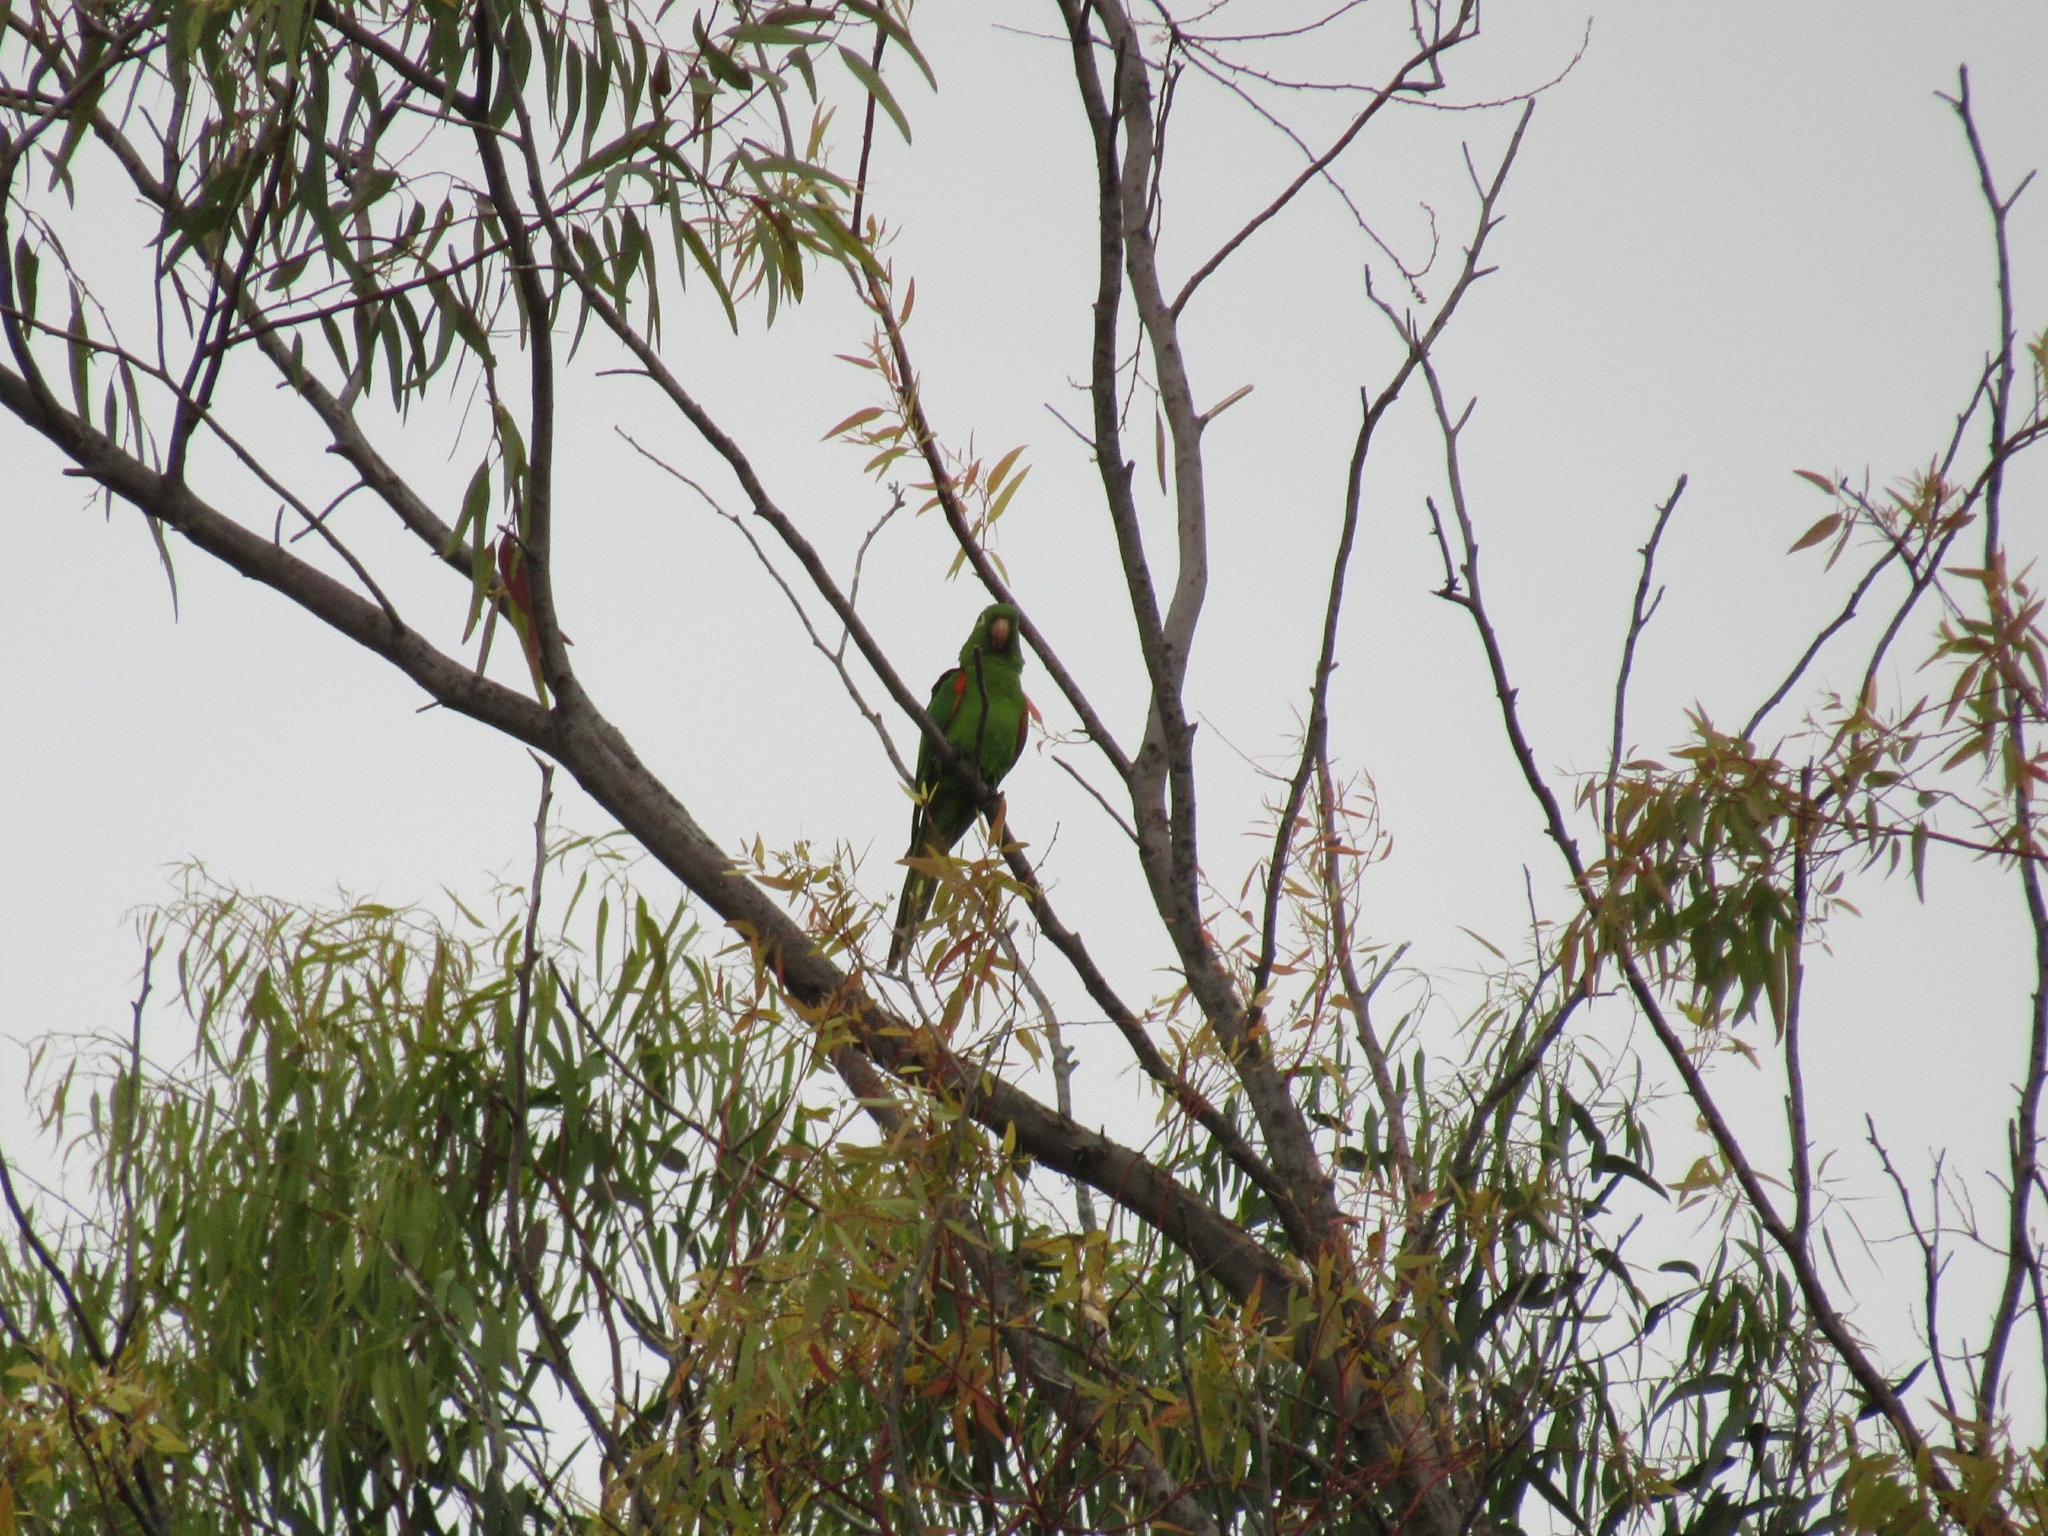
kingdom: Animalia
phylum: Chordata
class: Aves
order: Psittaciformes
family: Psittacidae
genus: Aratinga
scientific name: Aratinga leucophthalma
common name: White-eyed parakeet
